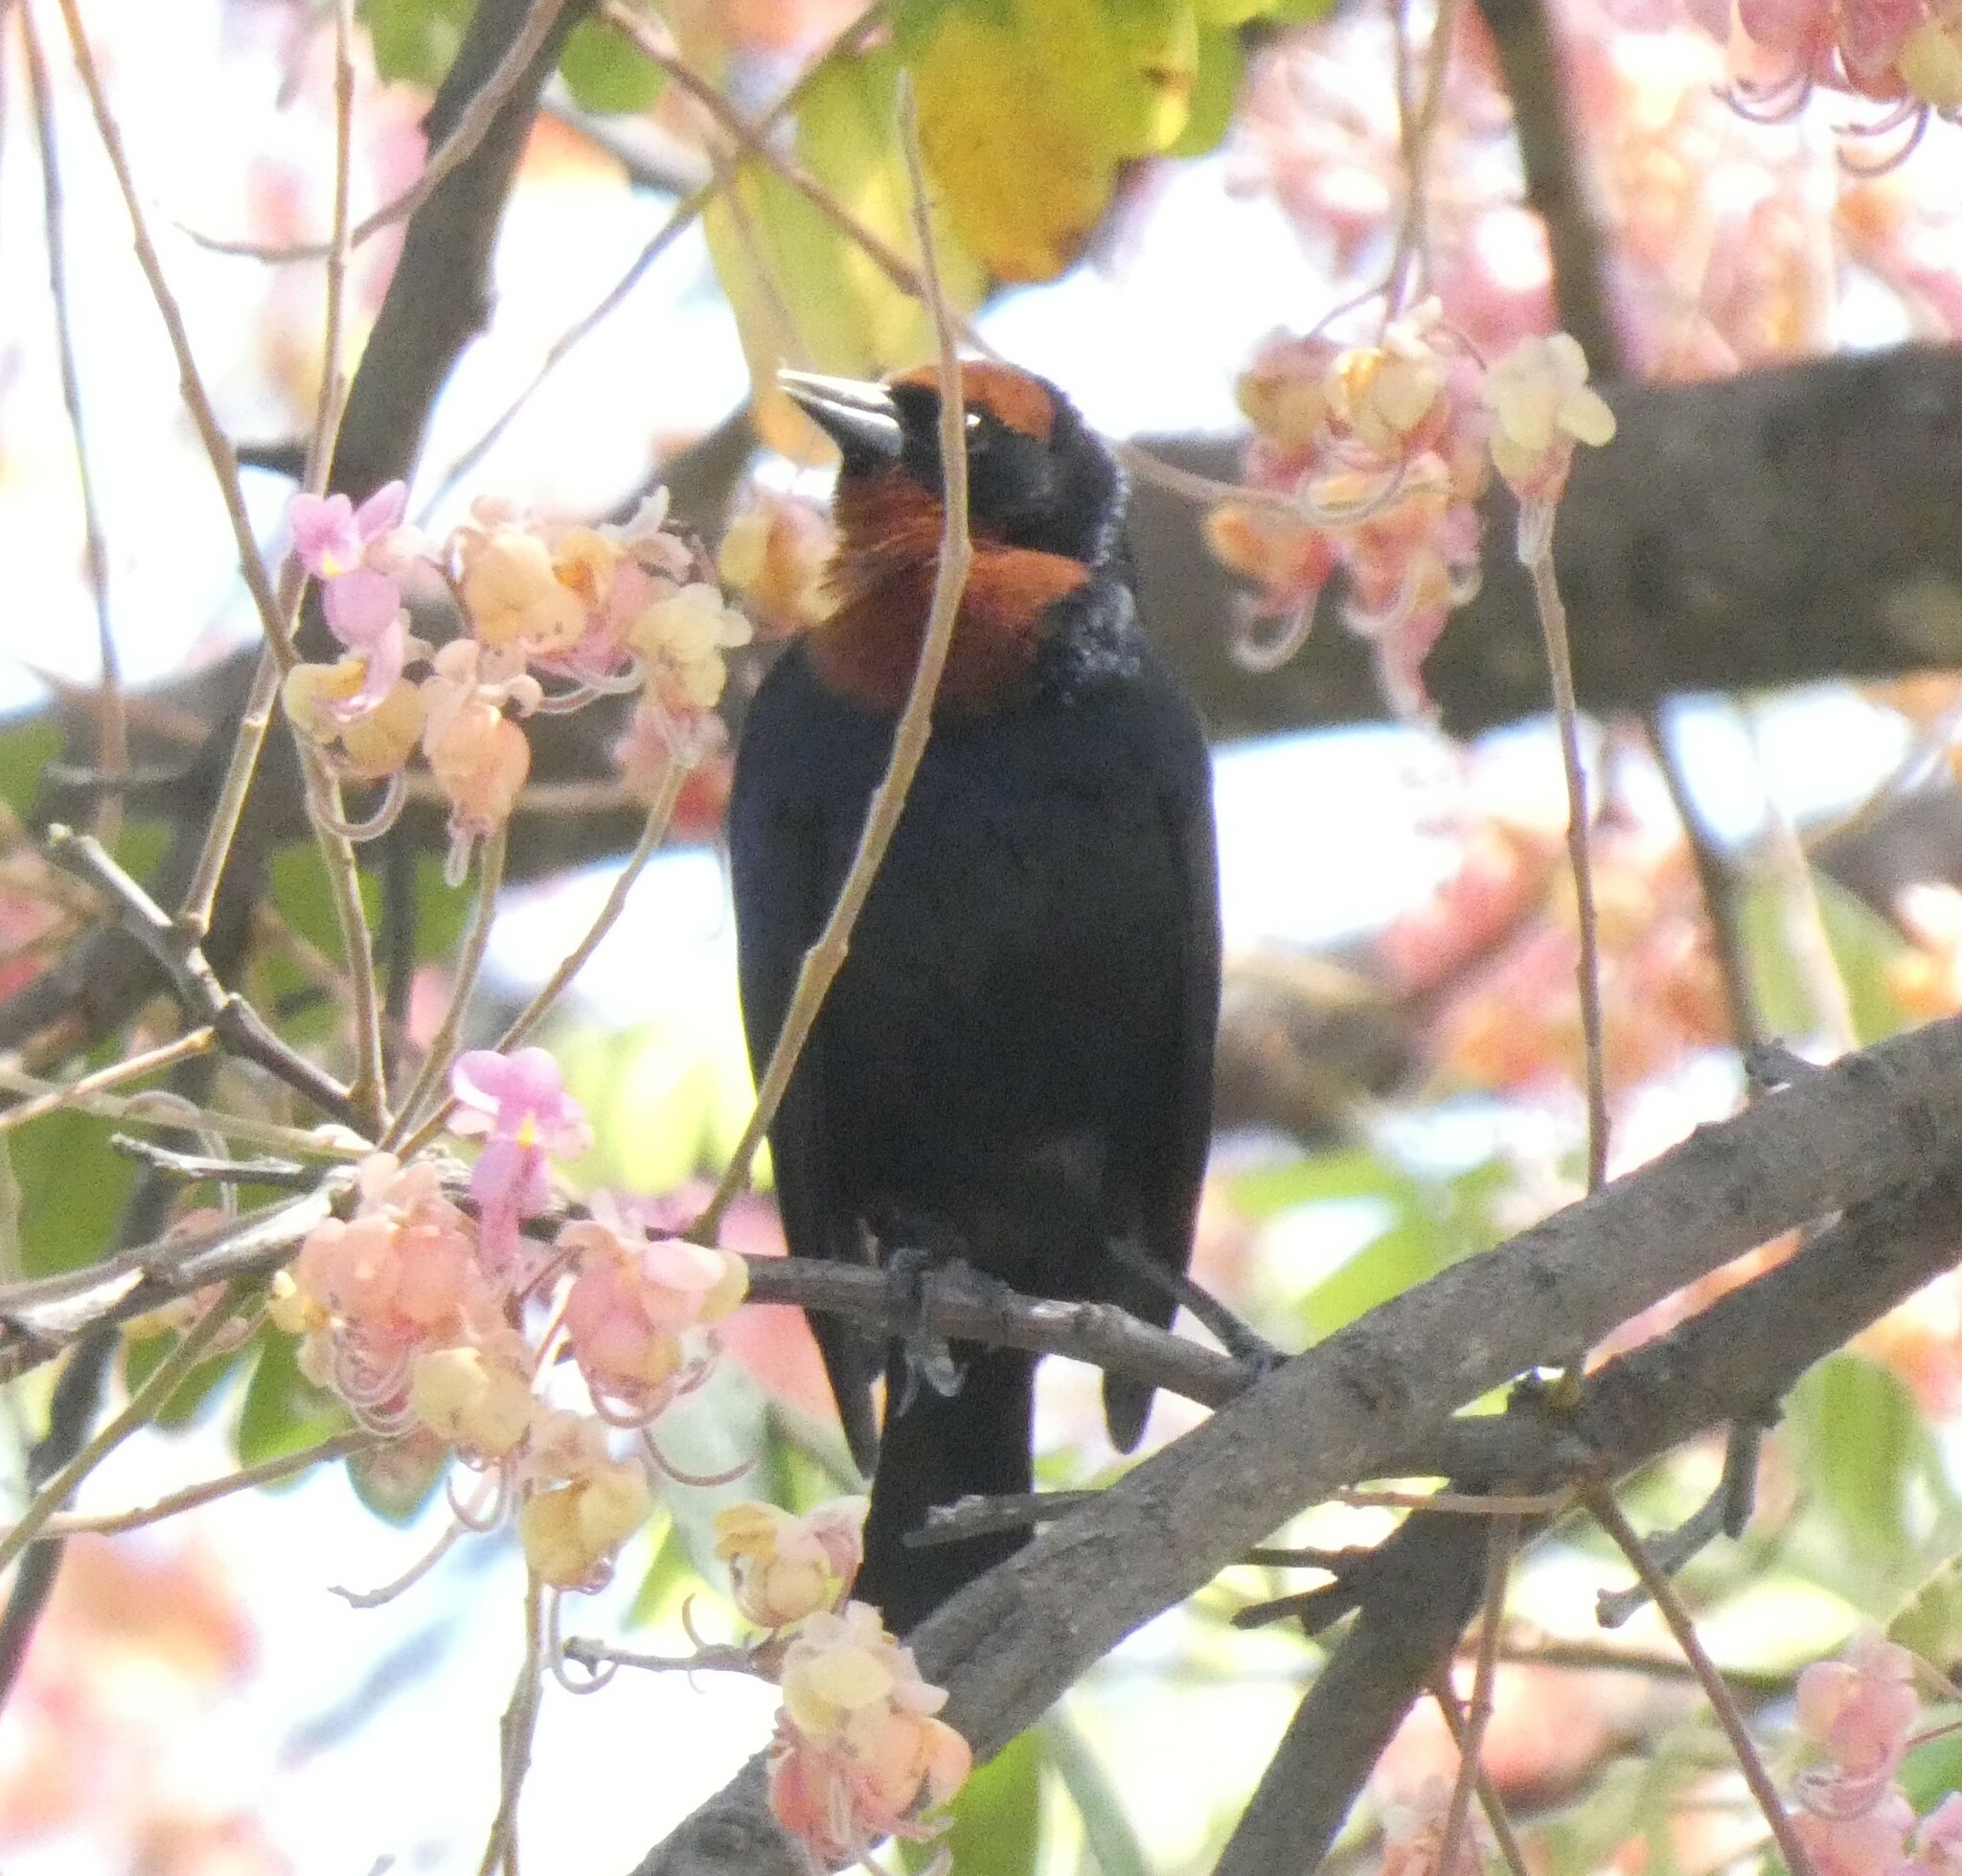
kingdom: Animalia
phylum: Chordata
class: Aves
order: Passeriformes
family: Icteridae
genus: Chrysomus
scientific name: Chrysomus ruficapillus
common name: Chestnut-capped blackbird
